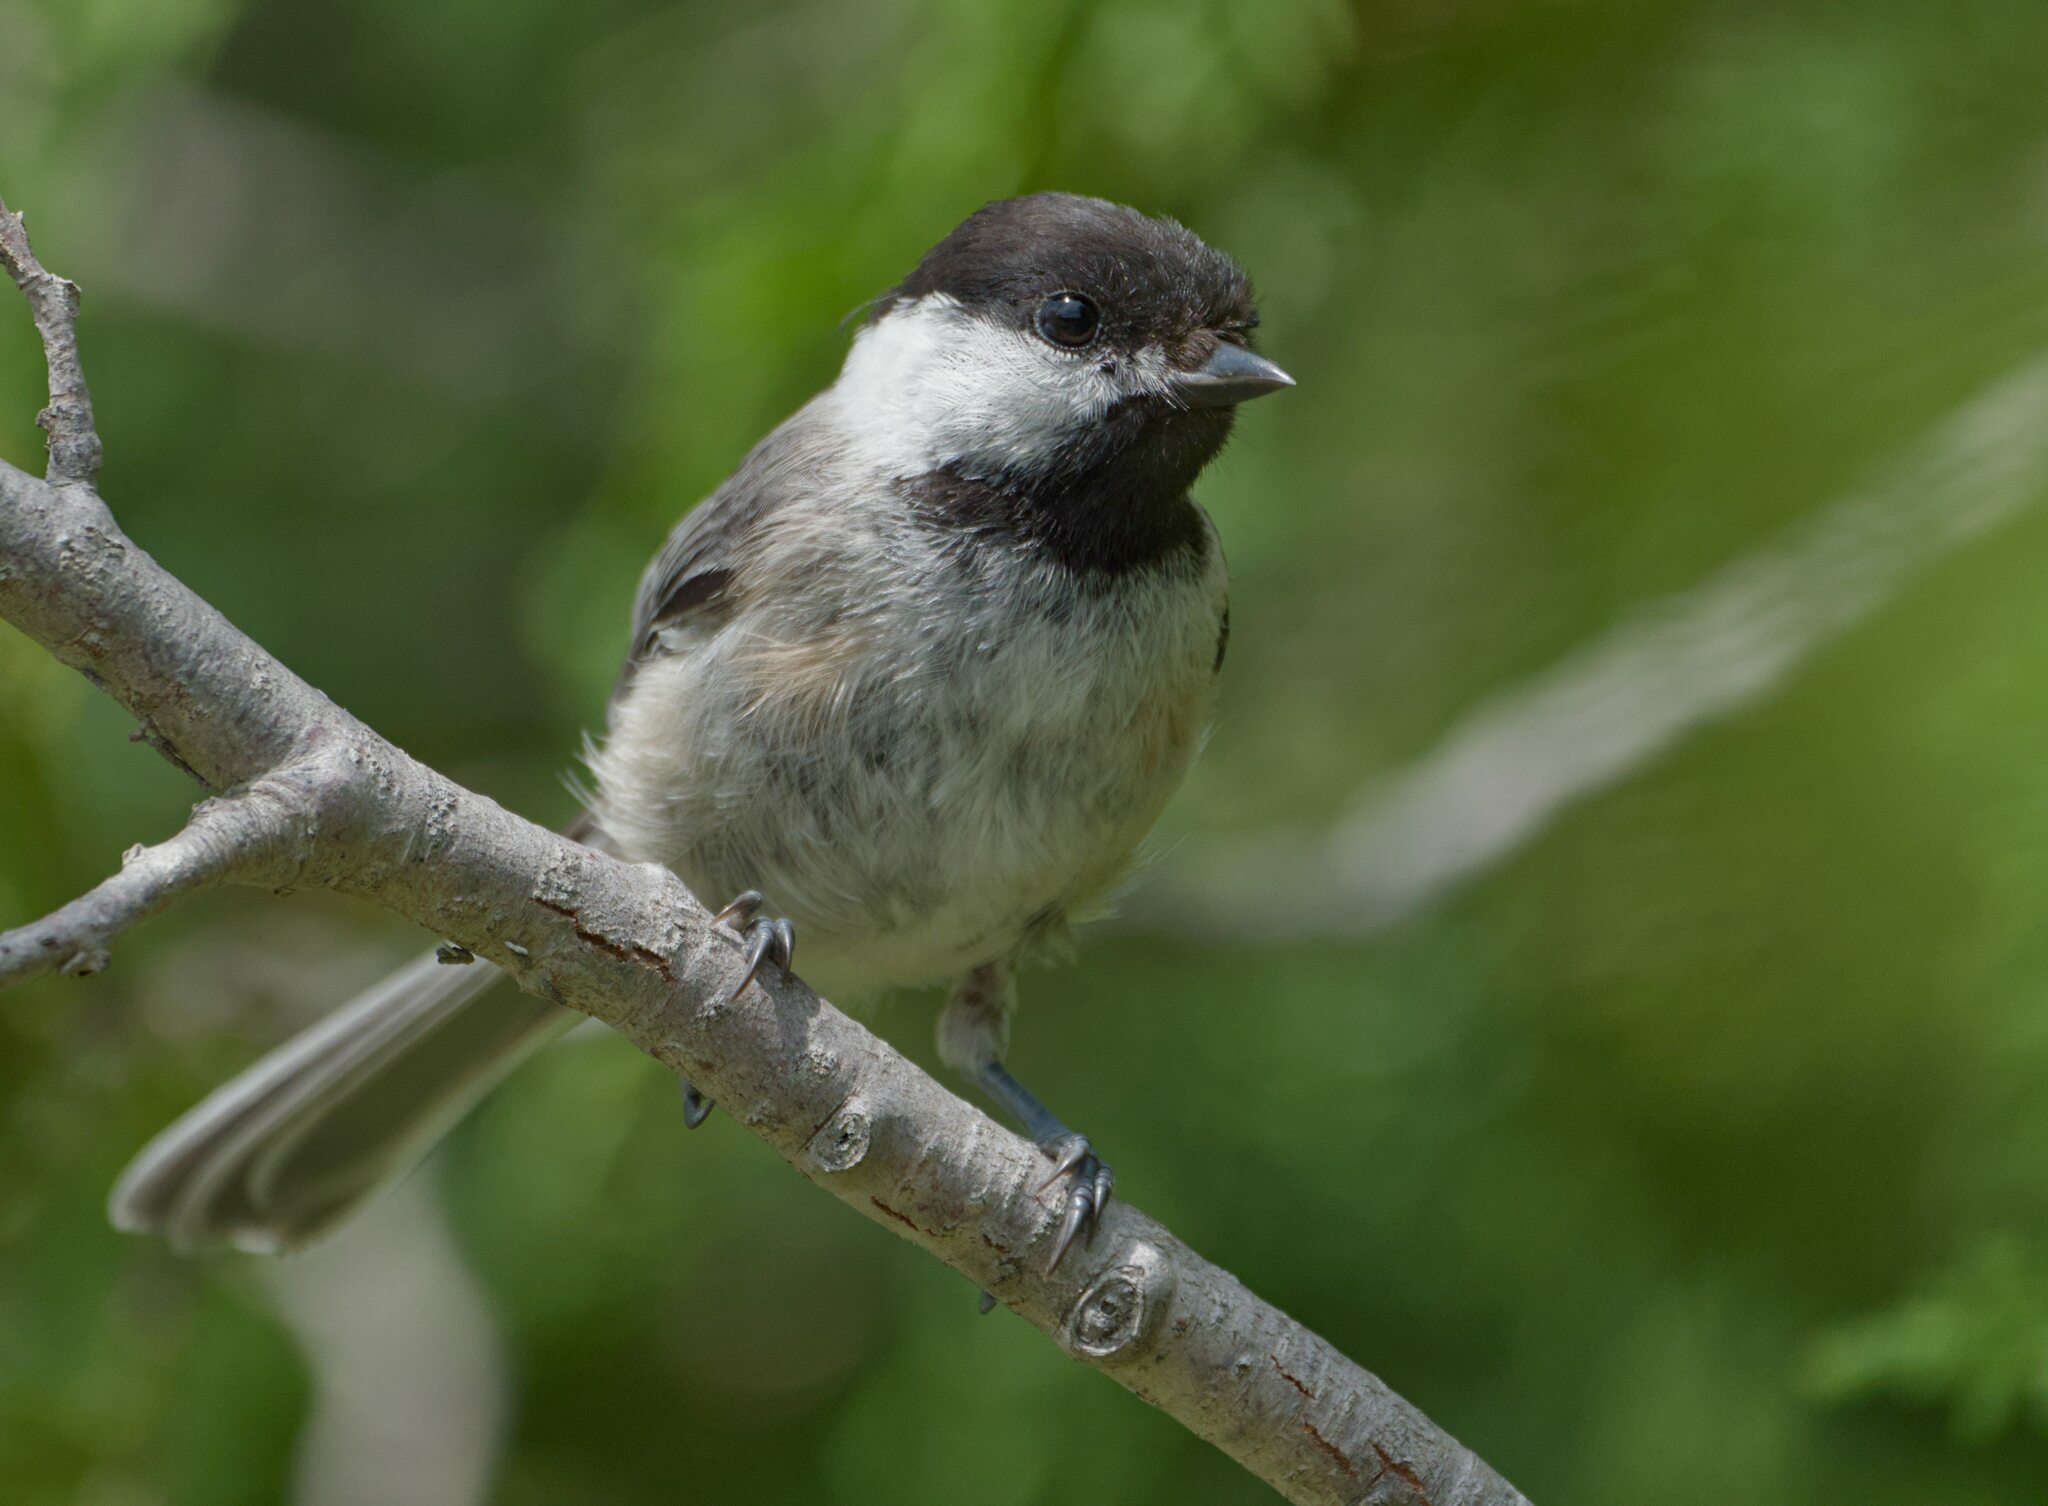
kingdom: Animalia
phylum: Chordata
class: Aves
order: Passeriformes
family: Paridae
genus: Poecile
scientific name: Poecile atricapillus
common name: Black-capped chickadee
